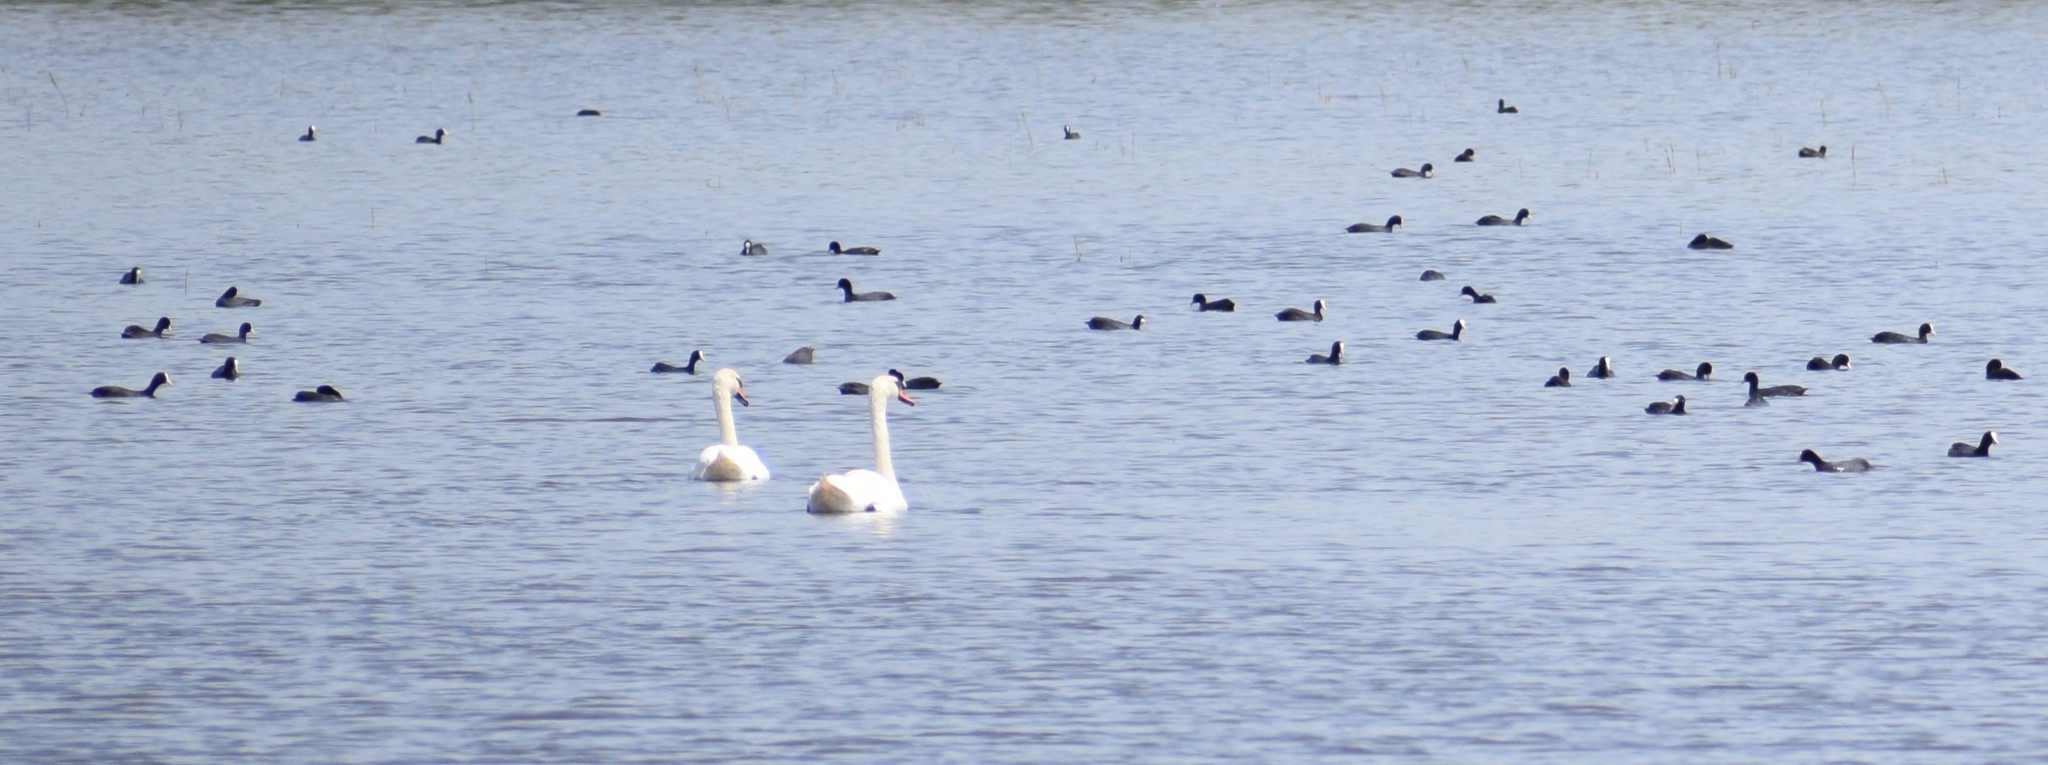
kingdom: Animalia
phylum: Chordata
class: Aves
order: Gruiformes
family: Rallidae
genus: Fulica
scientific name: Fulica atra
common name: Eurasian coot
